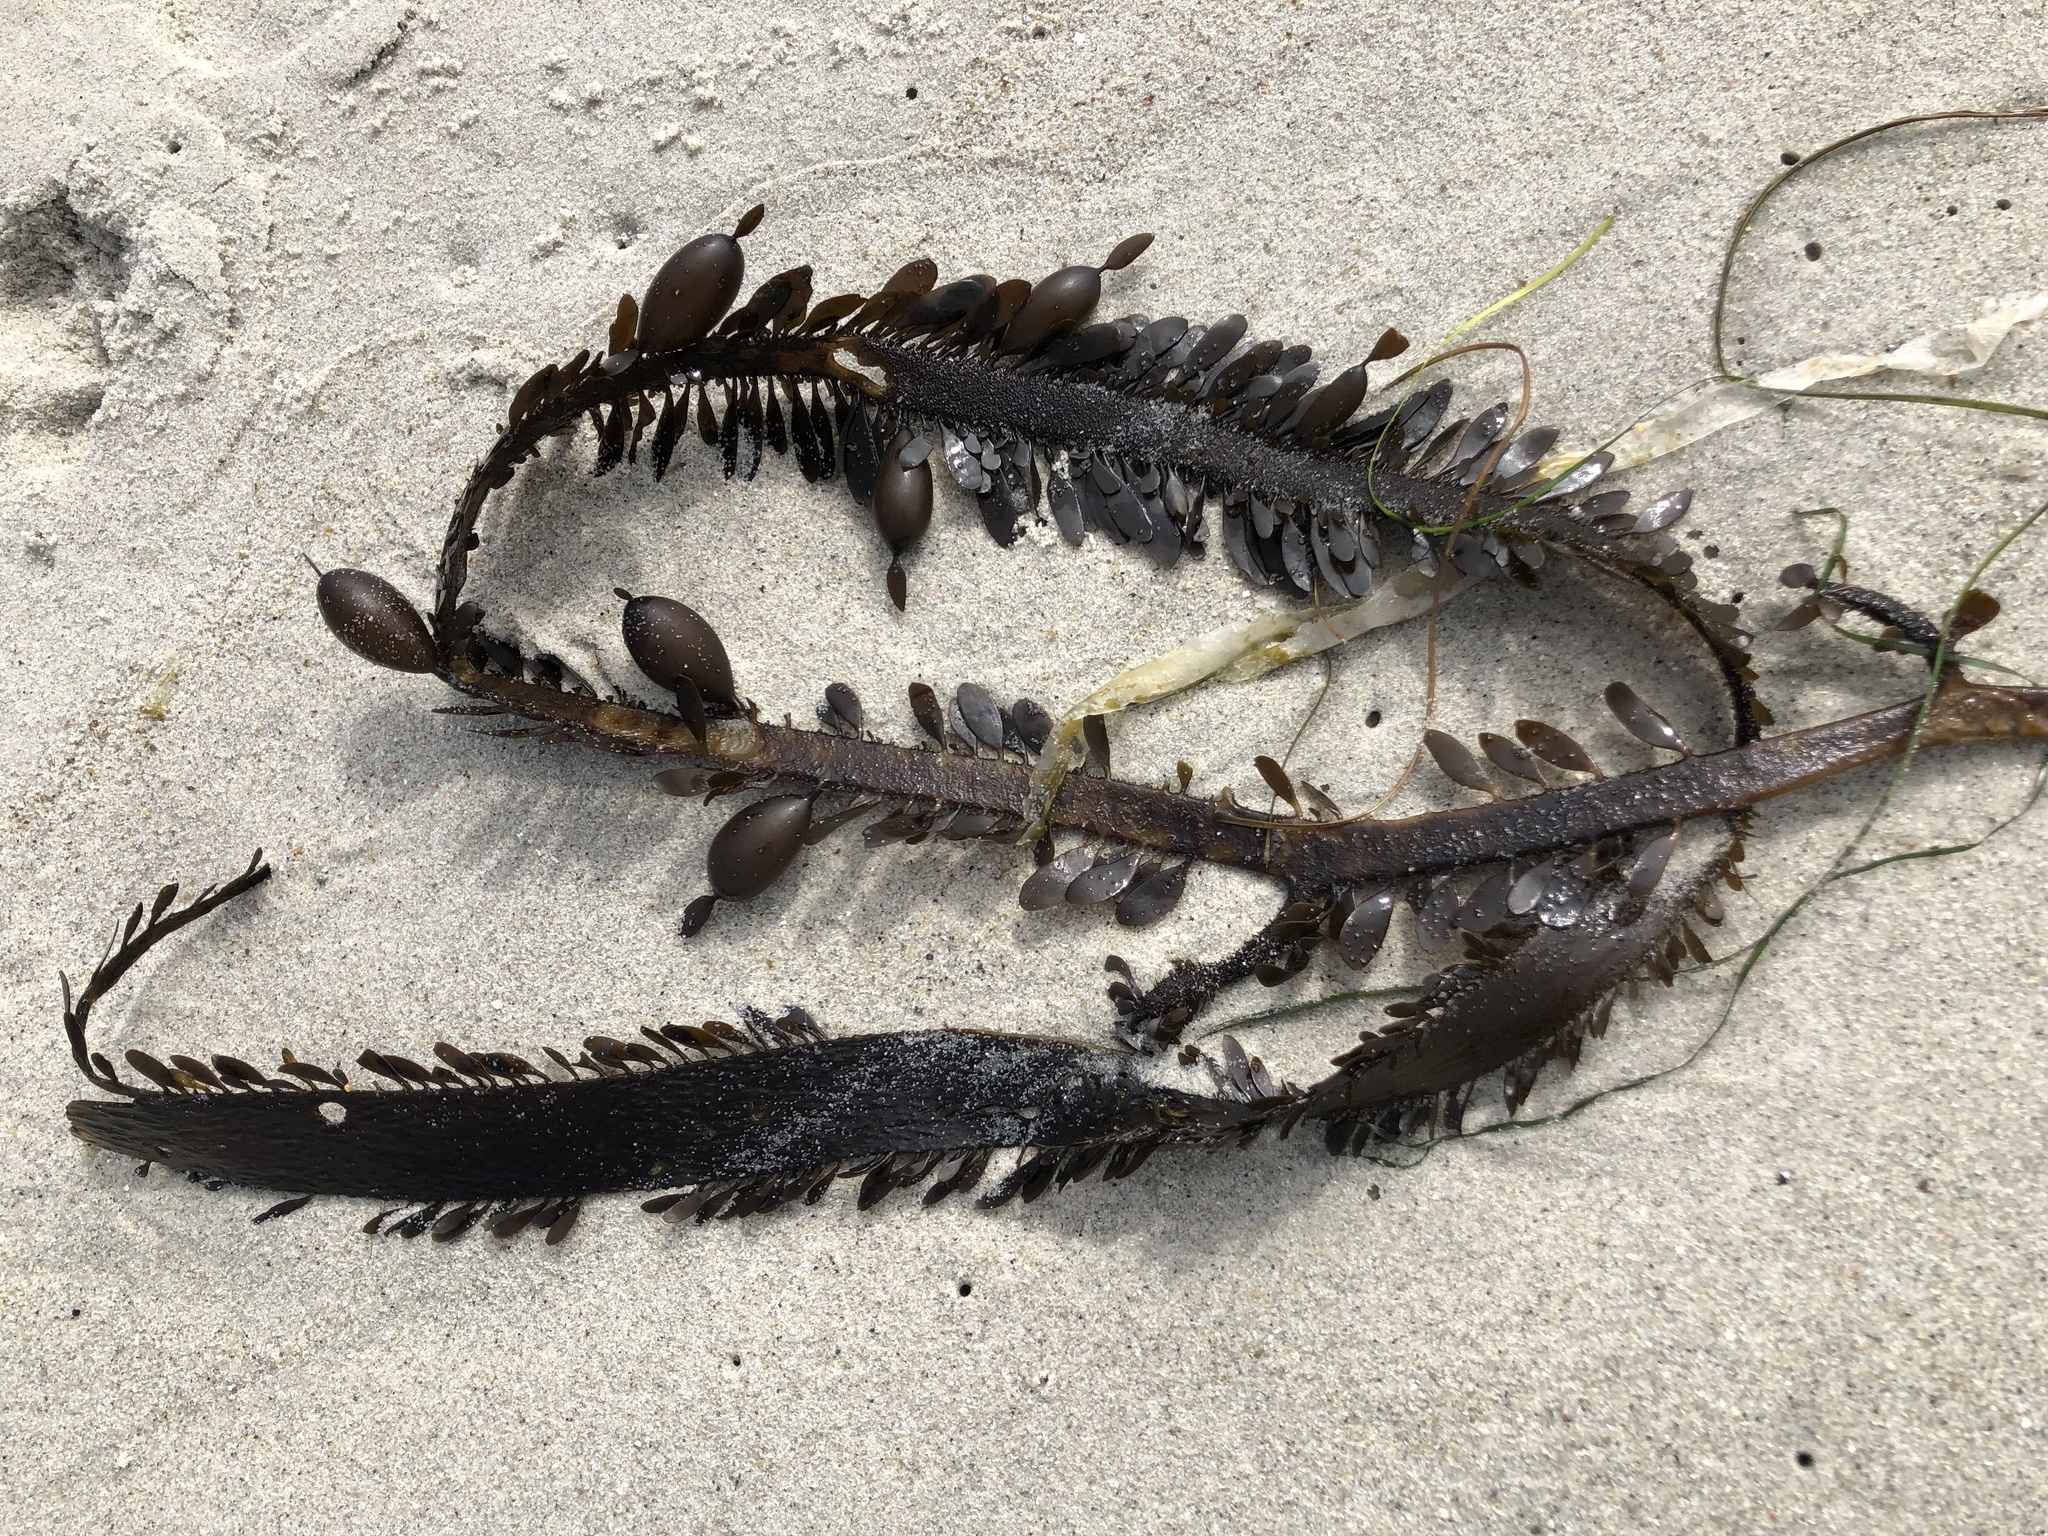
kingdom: Chromista
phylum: Ochrophyta
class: Phaeophyceae
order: Laminariales
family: Lessoniaceae
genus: Egregia
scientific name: Egregia menziesii
